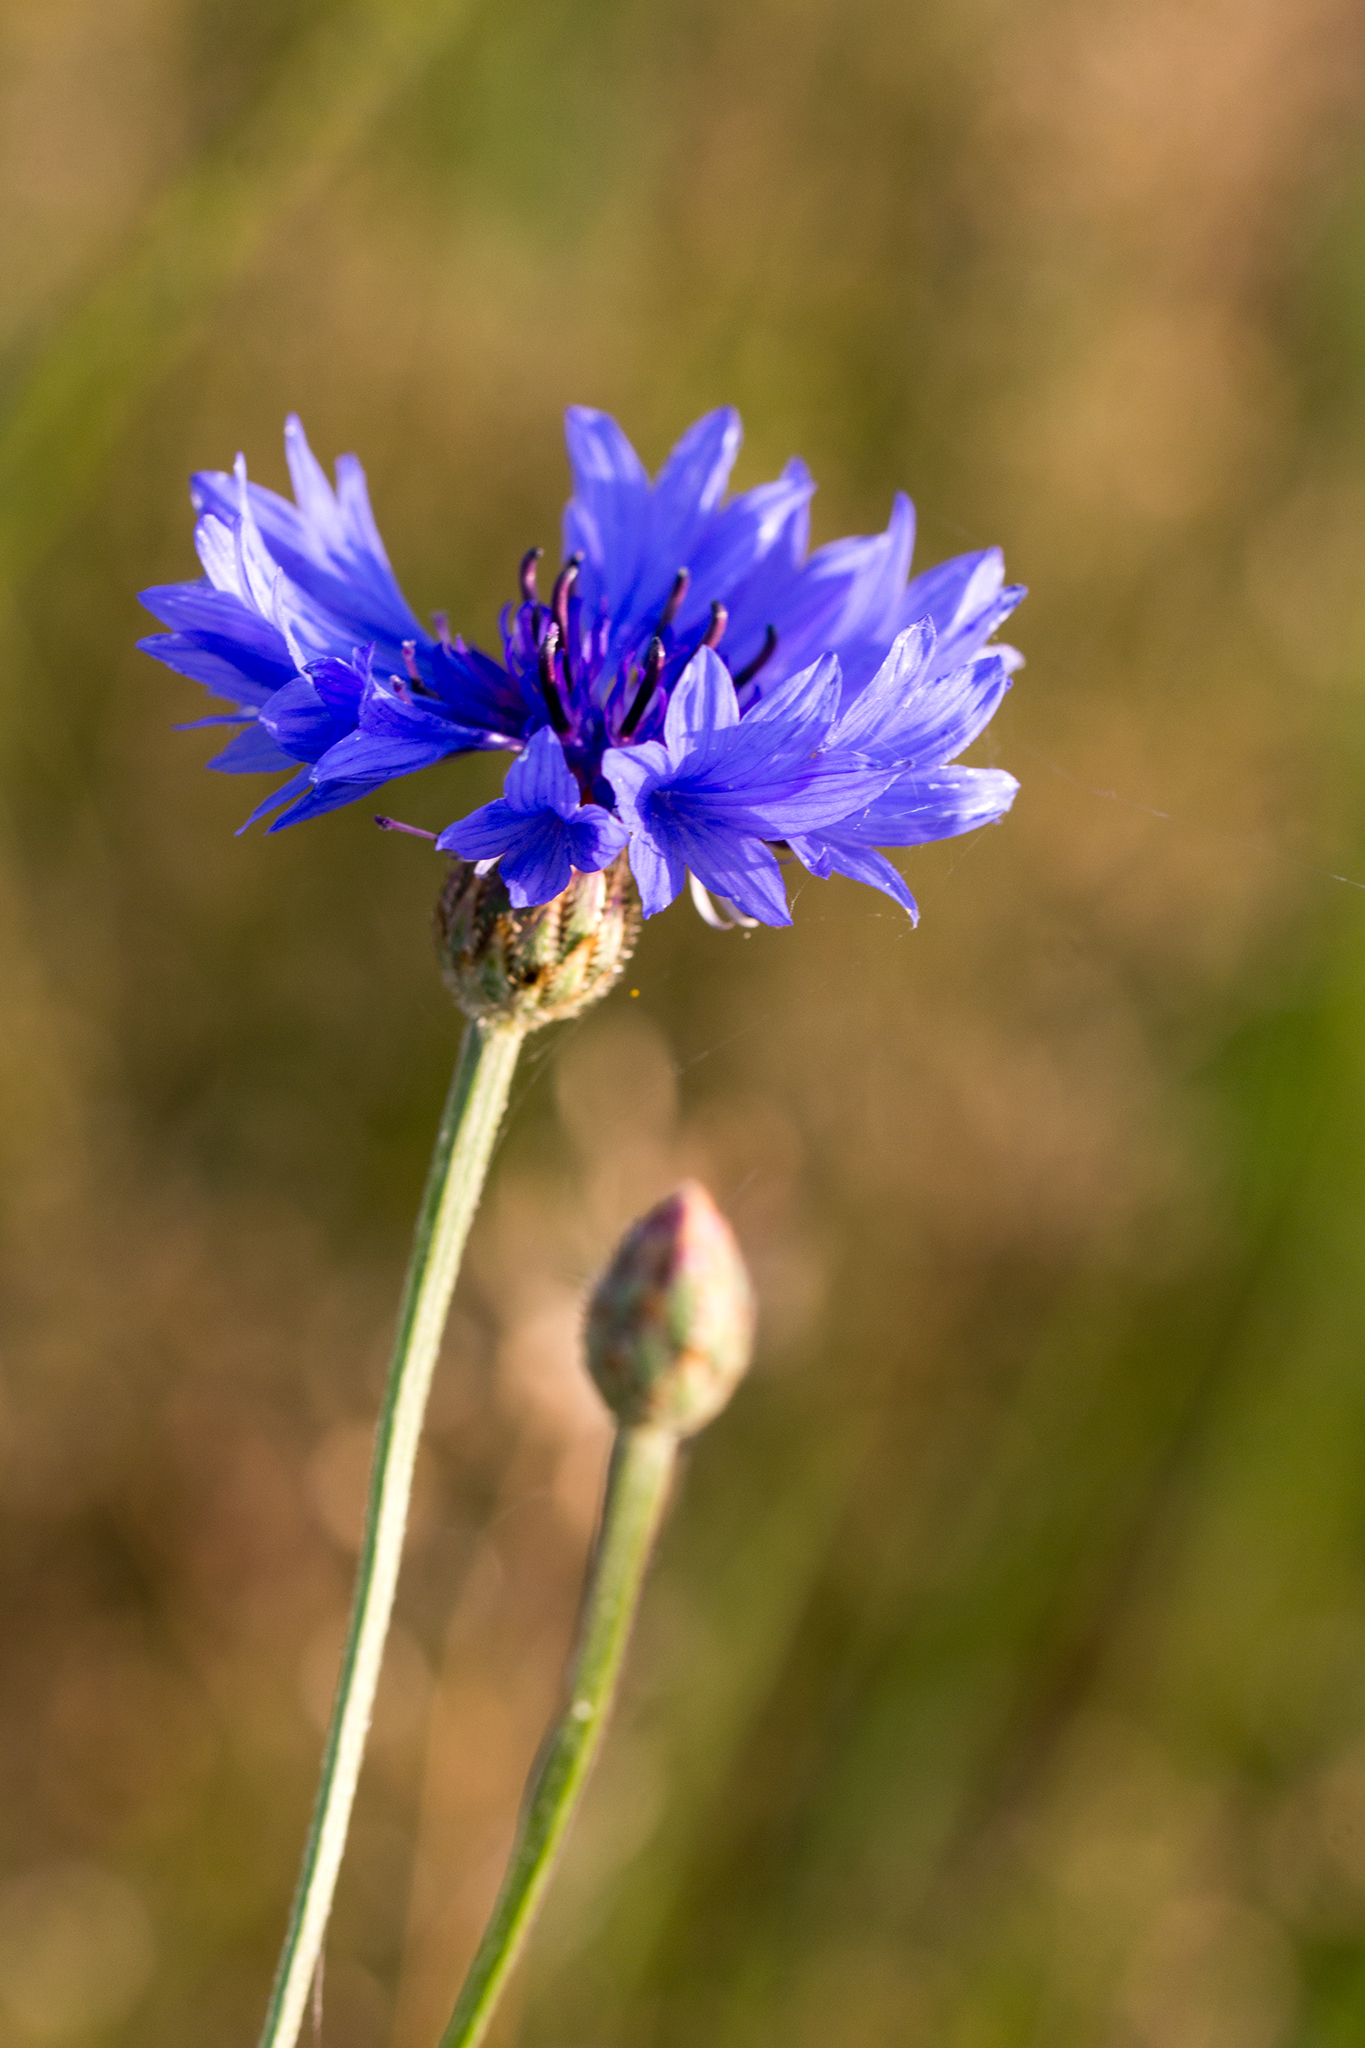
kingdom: Plantae
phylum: Tracheophyta
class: Magnoliopsida
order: Asterales
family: Asteraceae
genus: Centaurea
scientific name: Centaurea cyanus
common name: Cornflower
